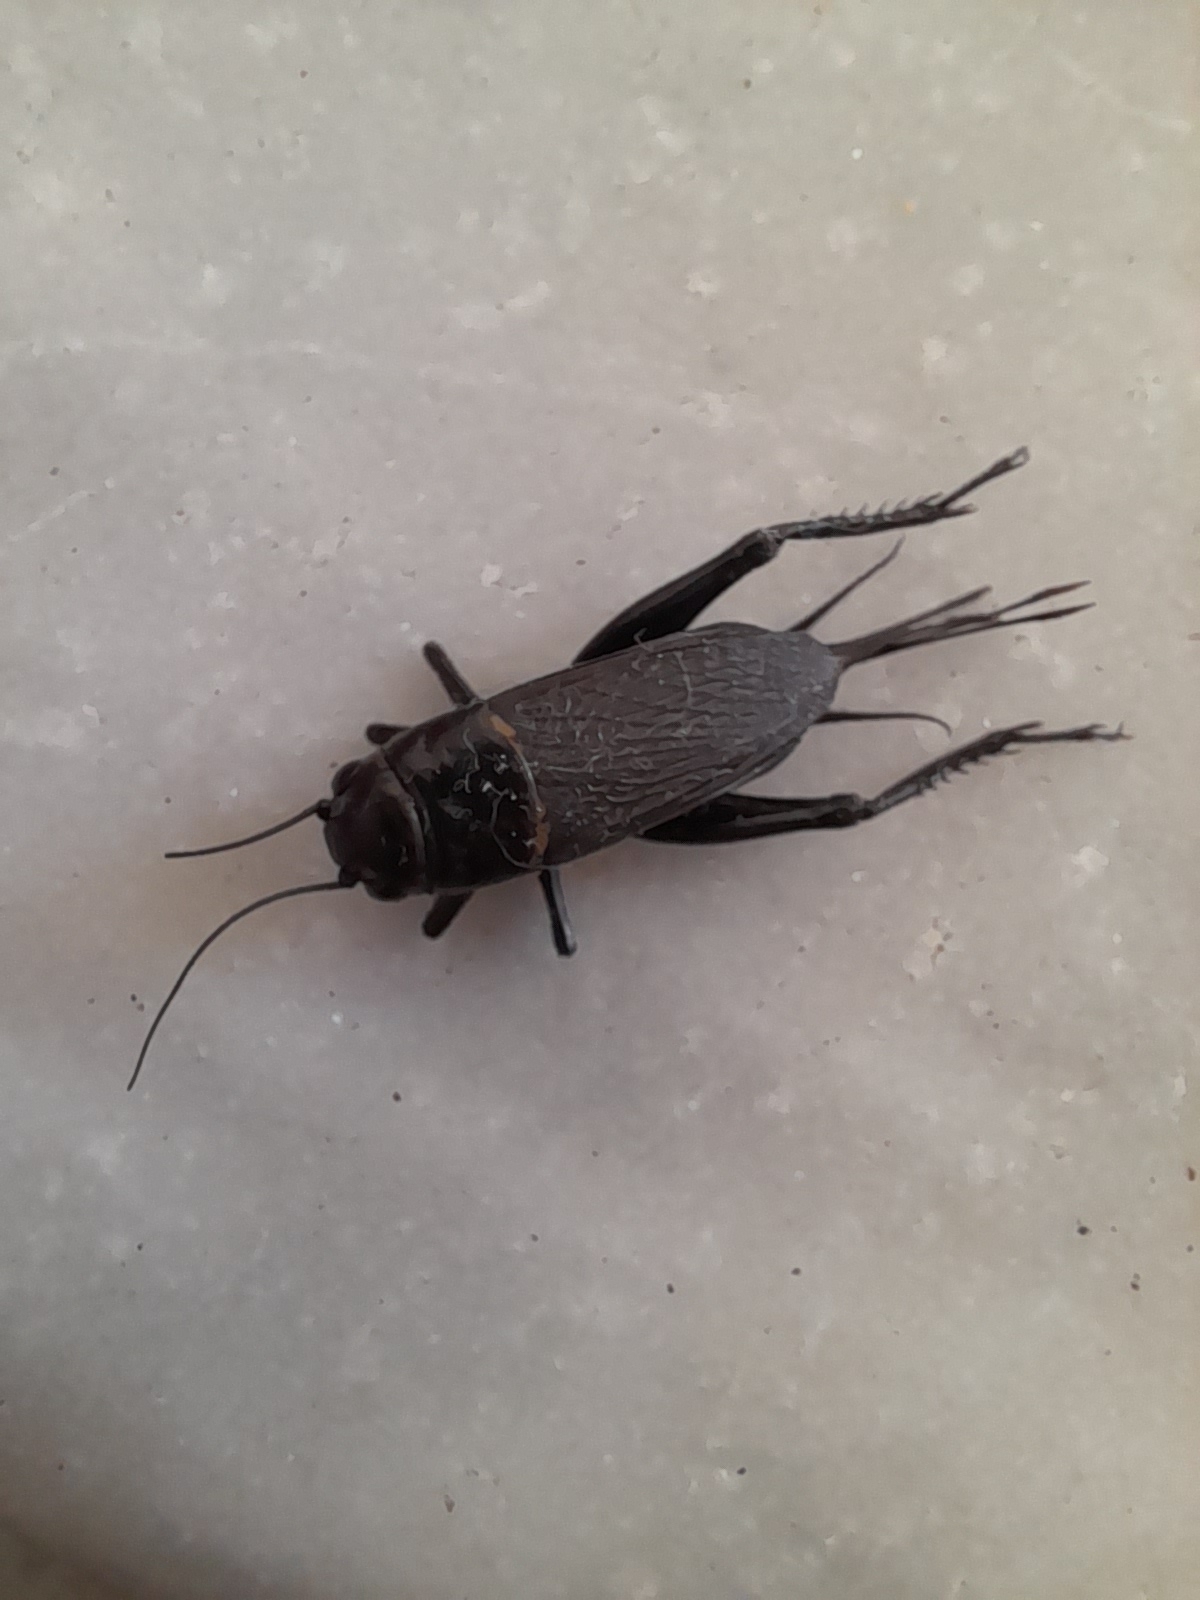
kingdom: Animalia
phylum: Arthropoda
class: Insecta
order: Orthoptera
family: Gryllidae
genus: Gryllus
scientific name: Gryllus bimaculatus
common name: Two-spotted cricket
